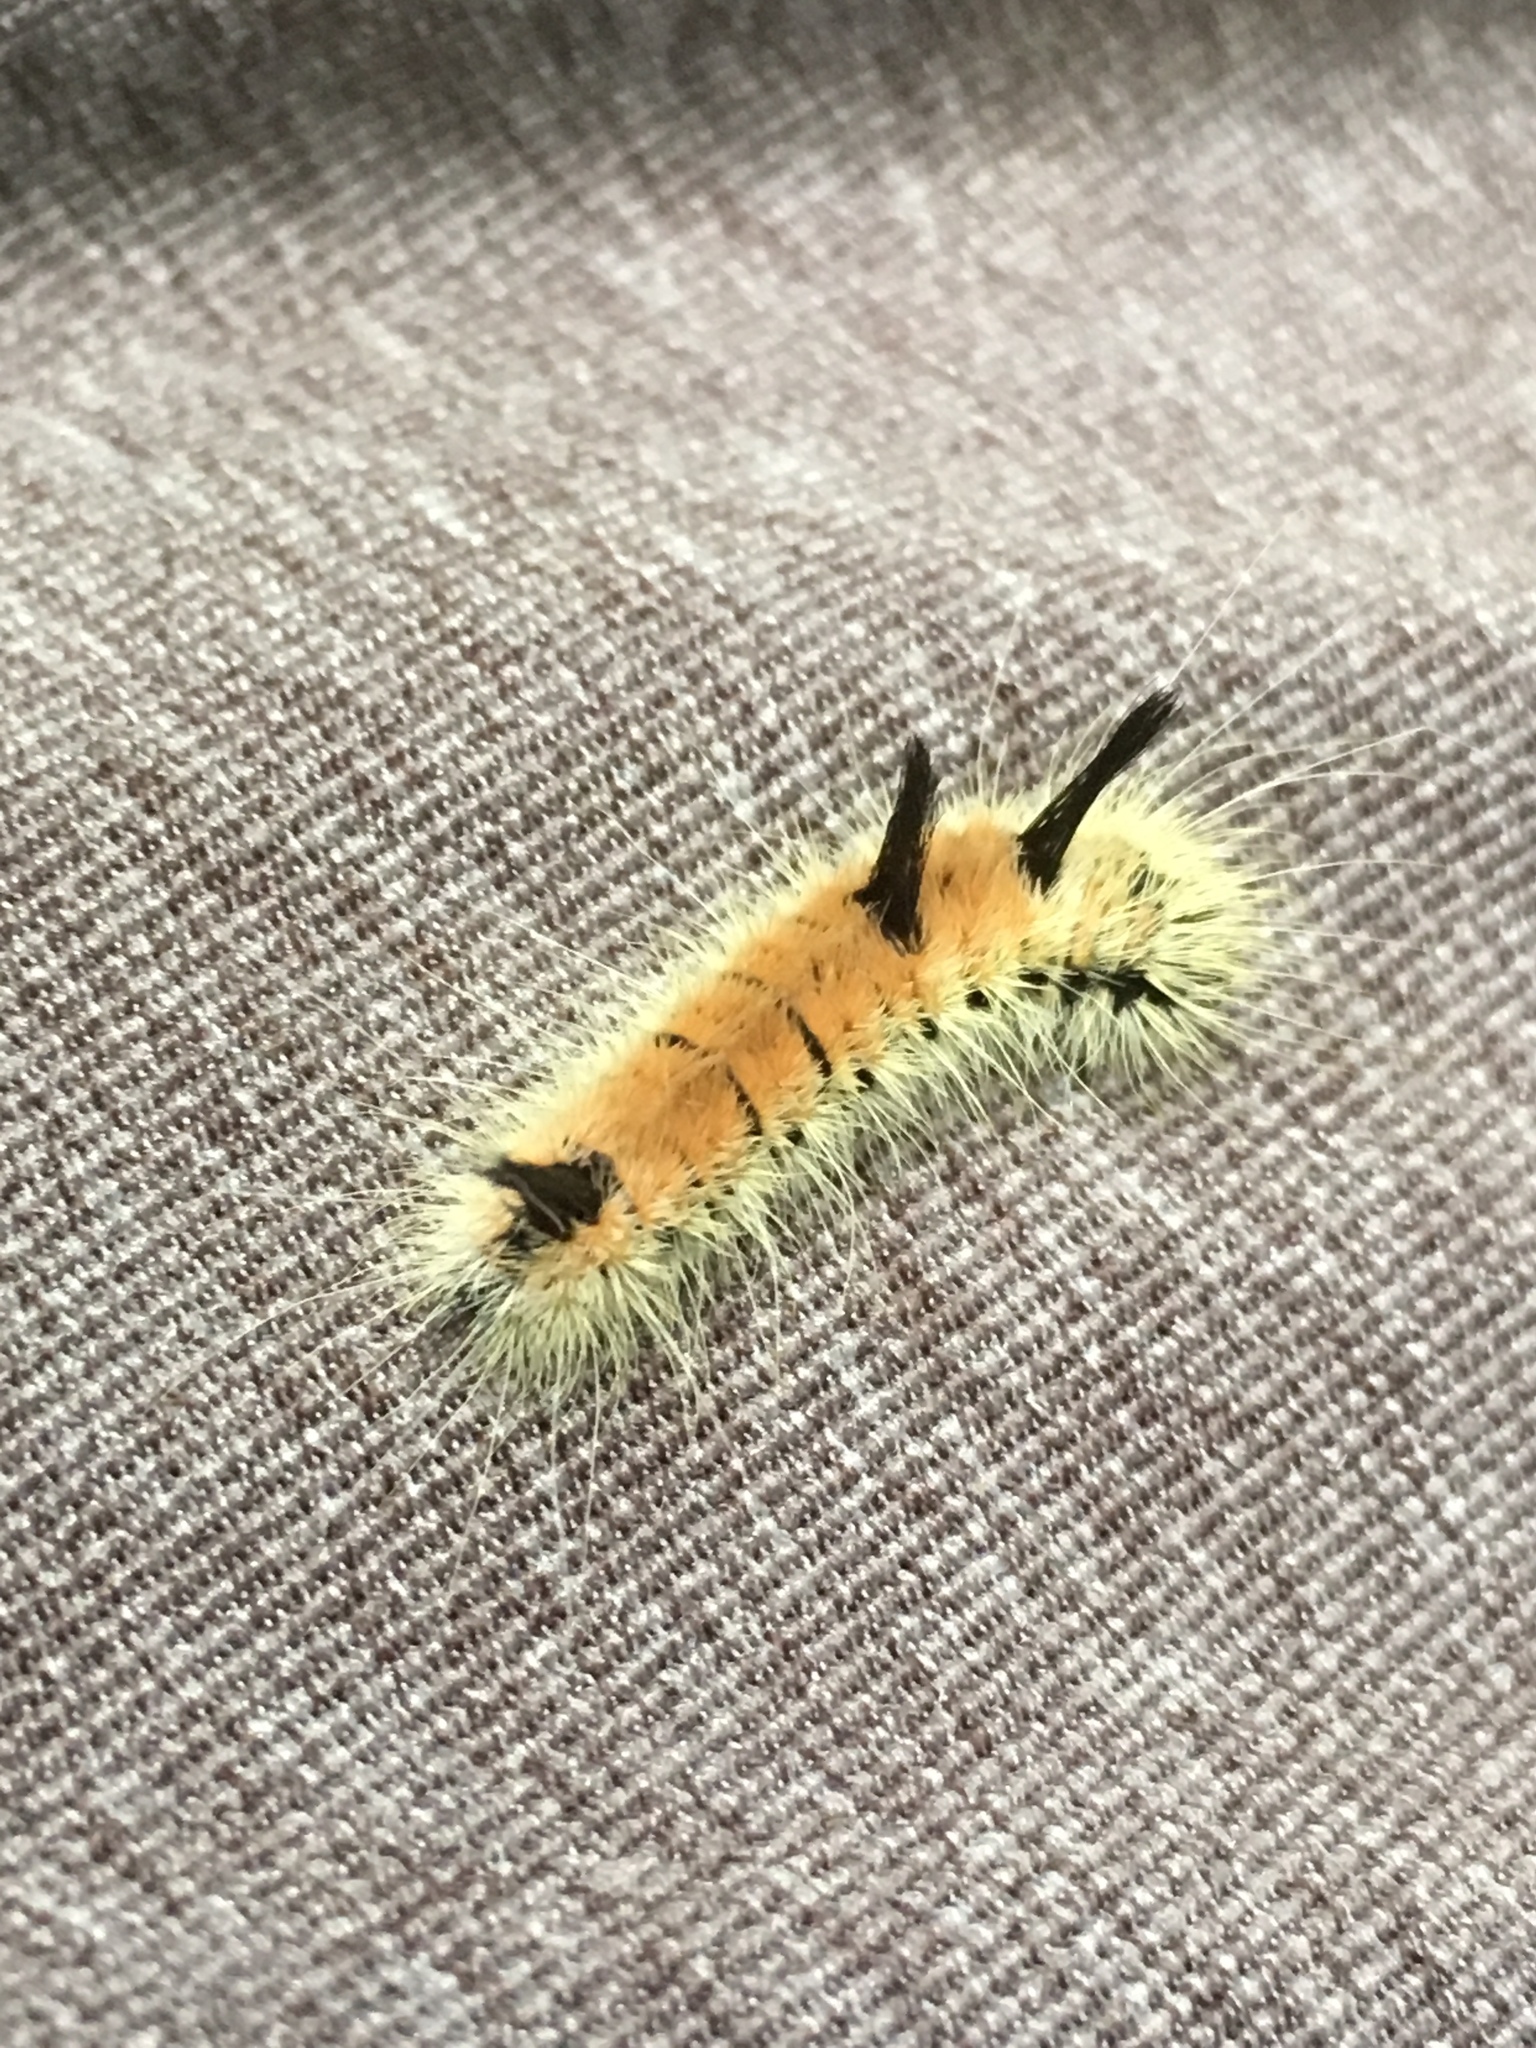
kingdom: Animalia
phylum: Arthropoda
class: Insecta
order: Lepidoptera
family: Noctuidae
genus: Acronicta
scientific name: Acronicta insita
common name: Large gray dagger
